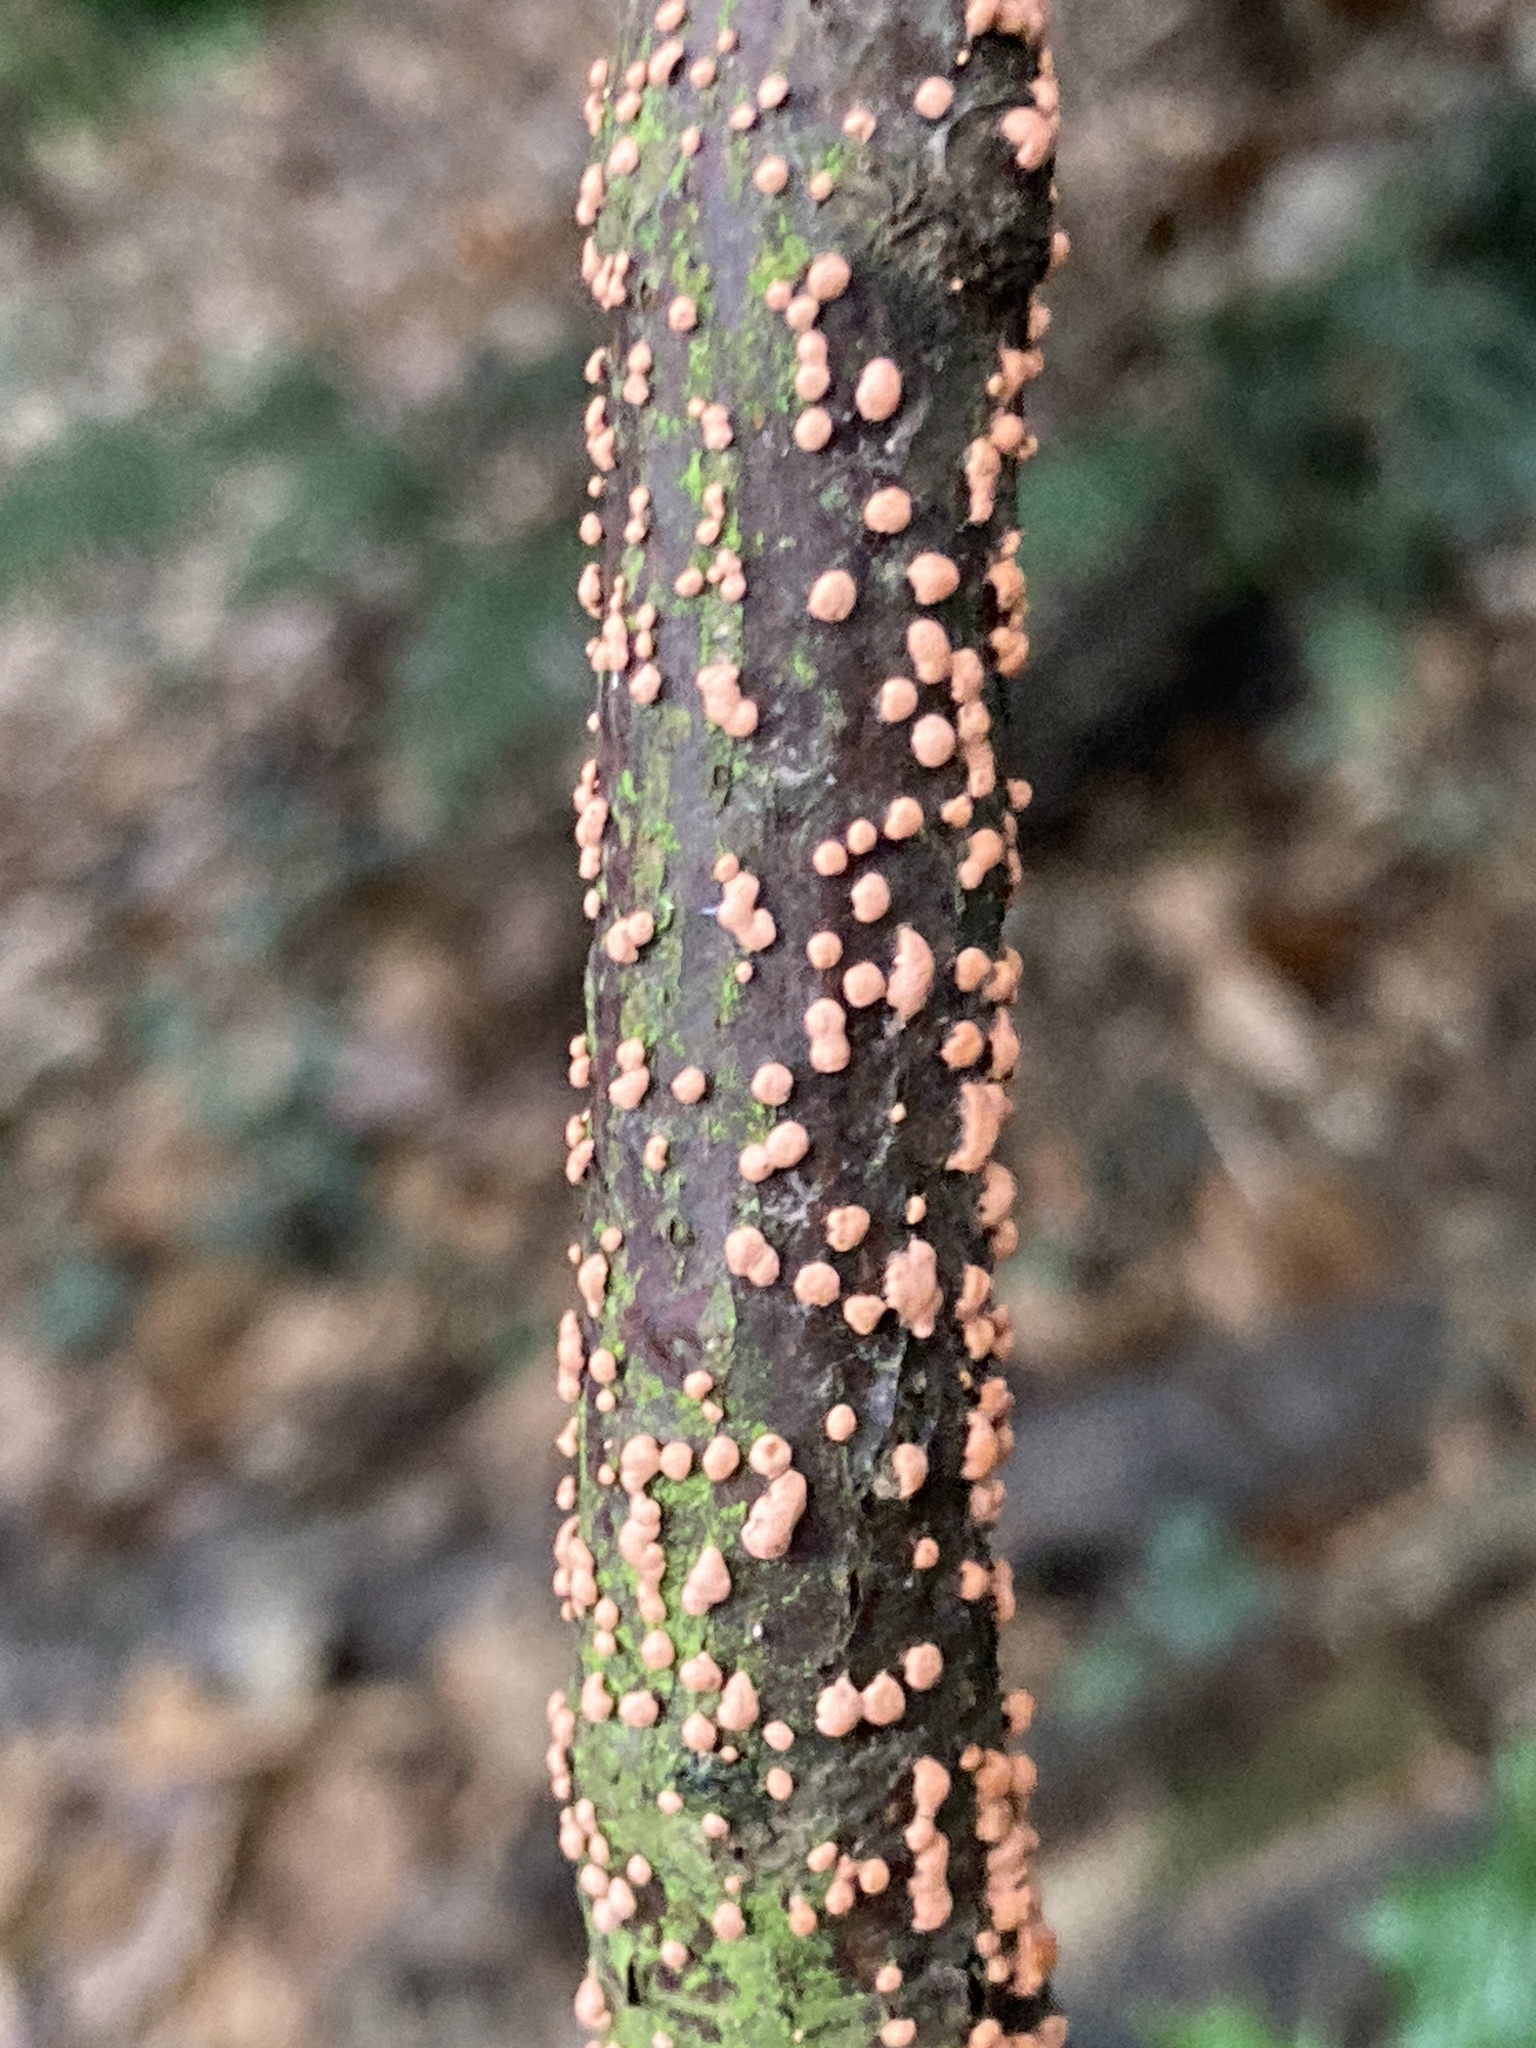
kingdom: Fungi
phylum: Ascomycota
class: Sordariomycetes
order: Hypocreales
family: Nectriaceae
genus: Nectria
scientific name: Nectria cinnabarina
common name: Coral spot
